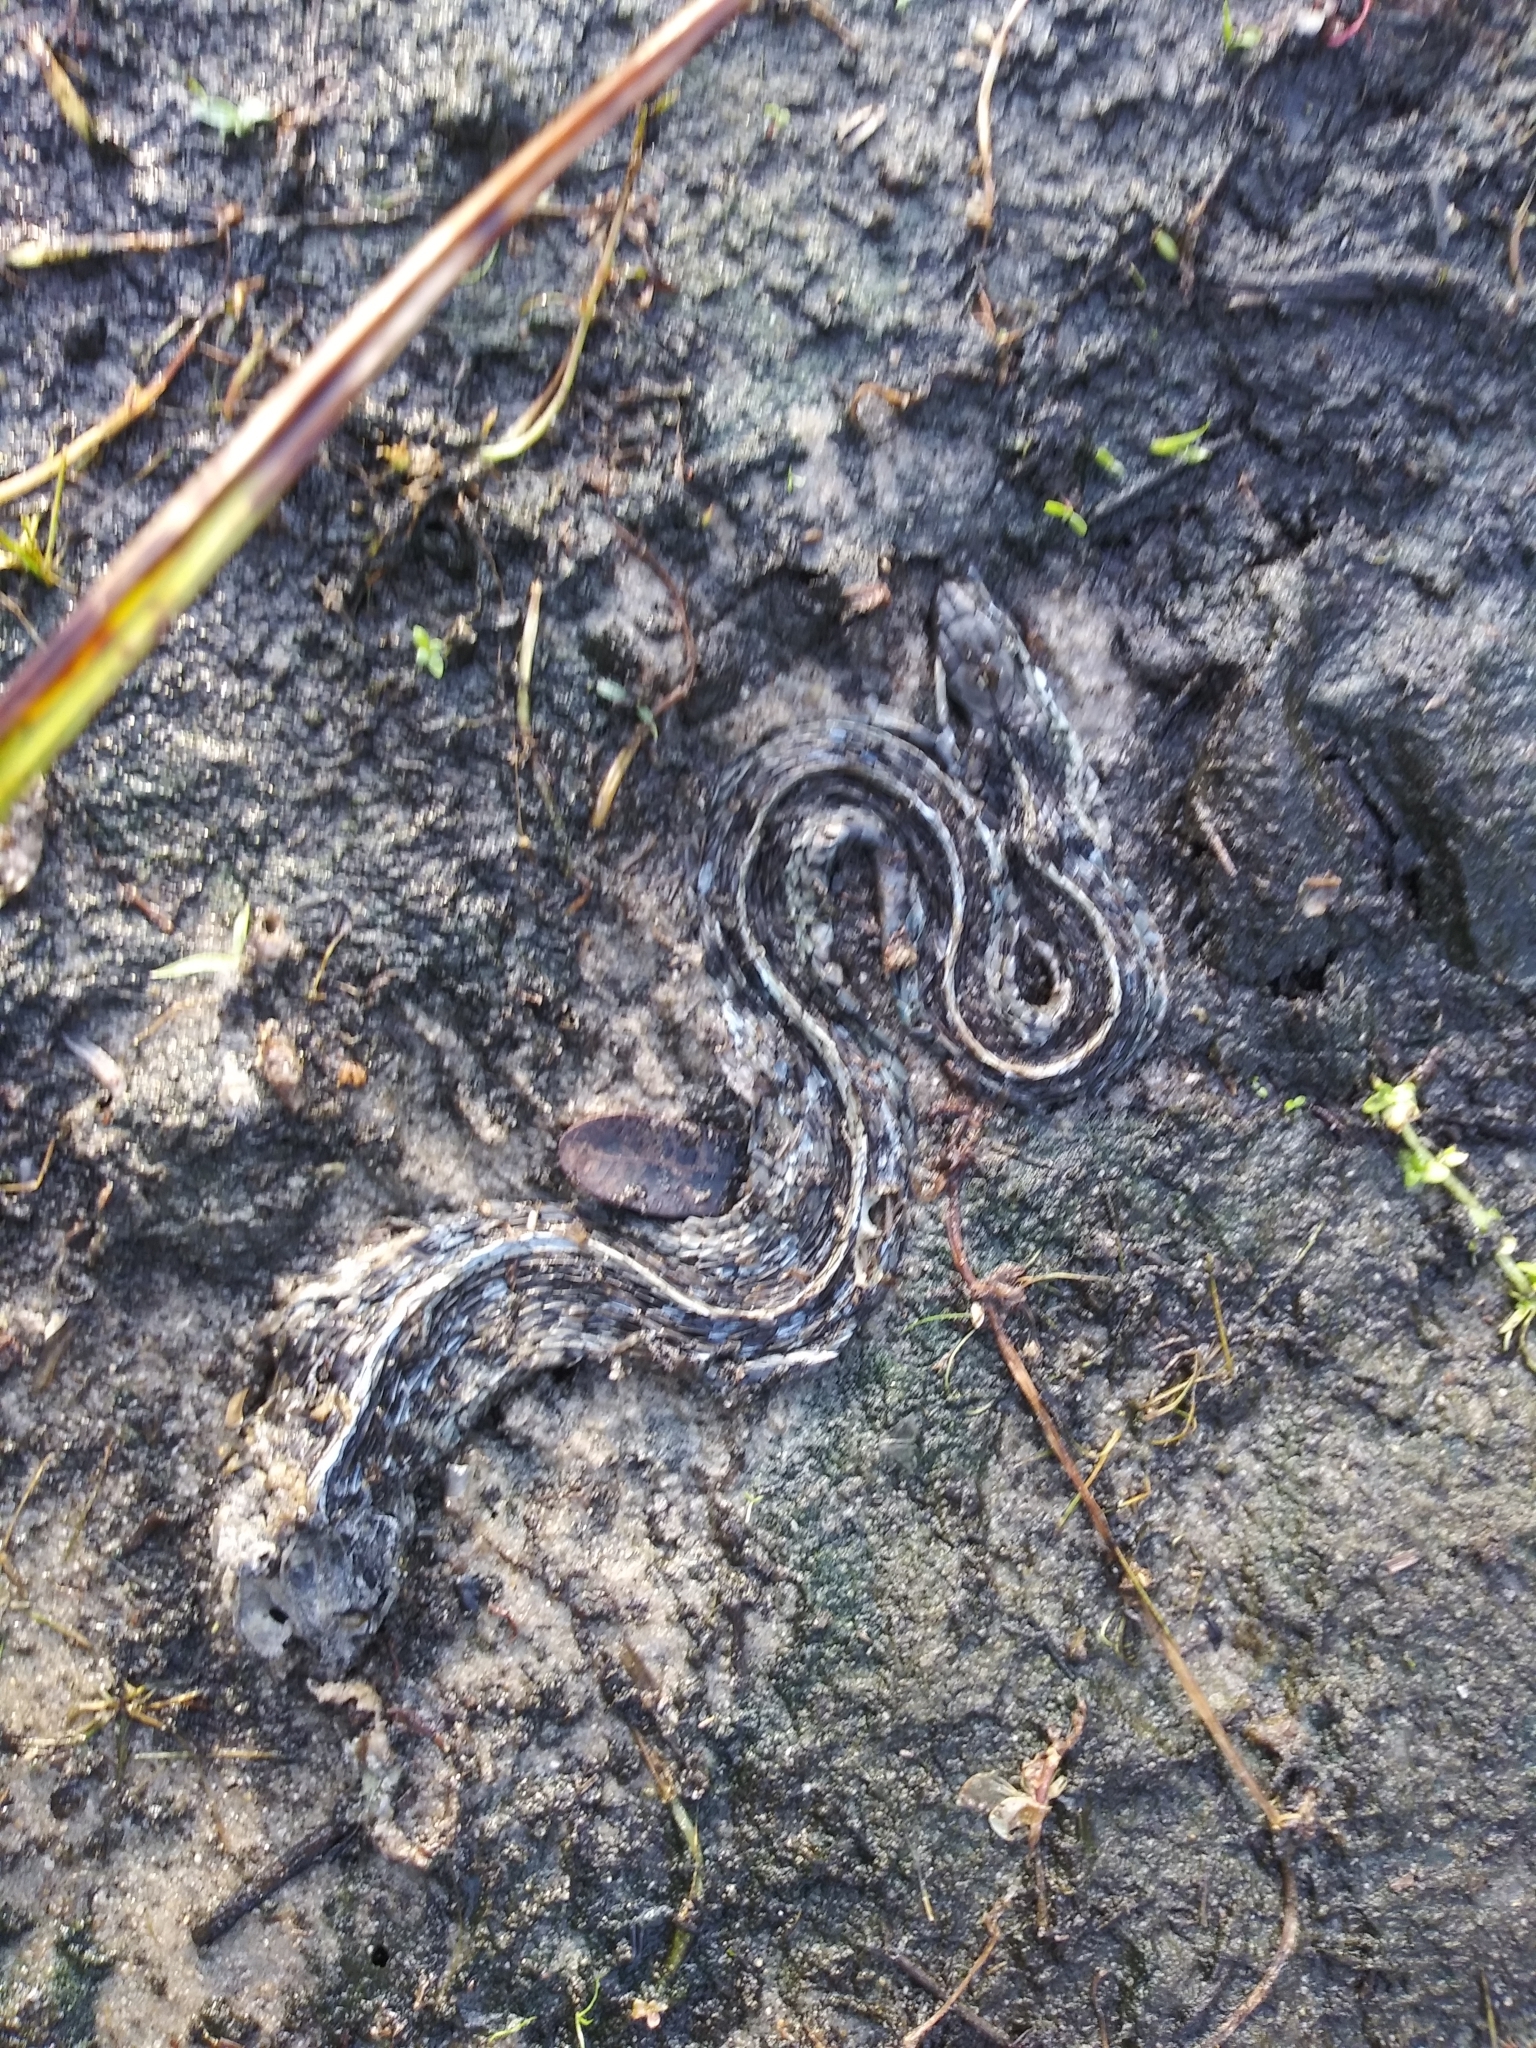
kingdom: Animalia
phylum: Chordata
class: Squamata
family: Colubridae
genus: Thamnophis
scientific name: Thamnophis sirtalis
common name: Common garter snake
